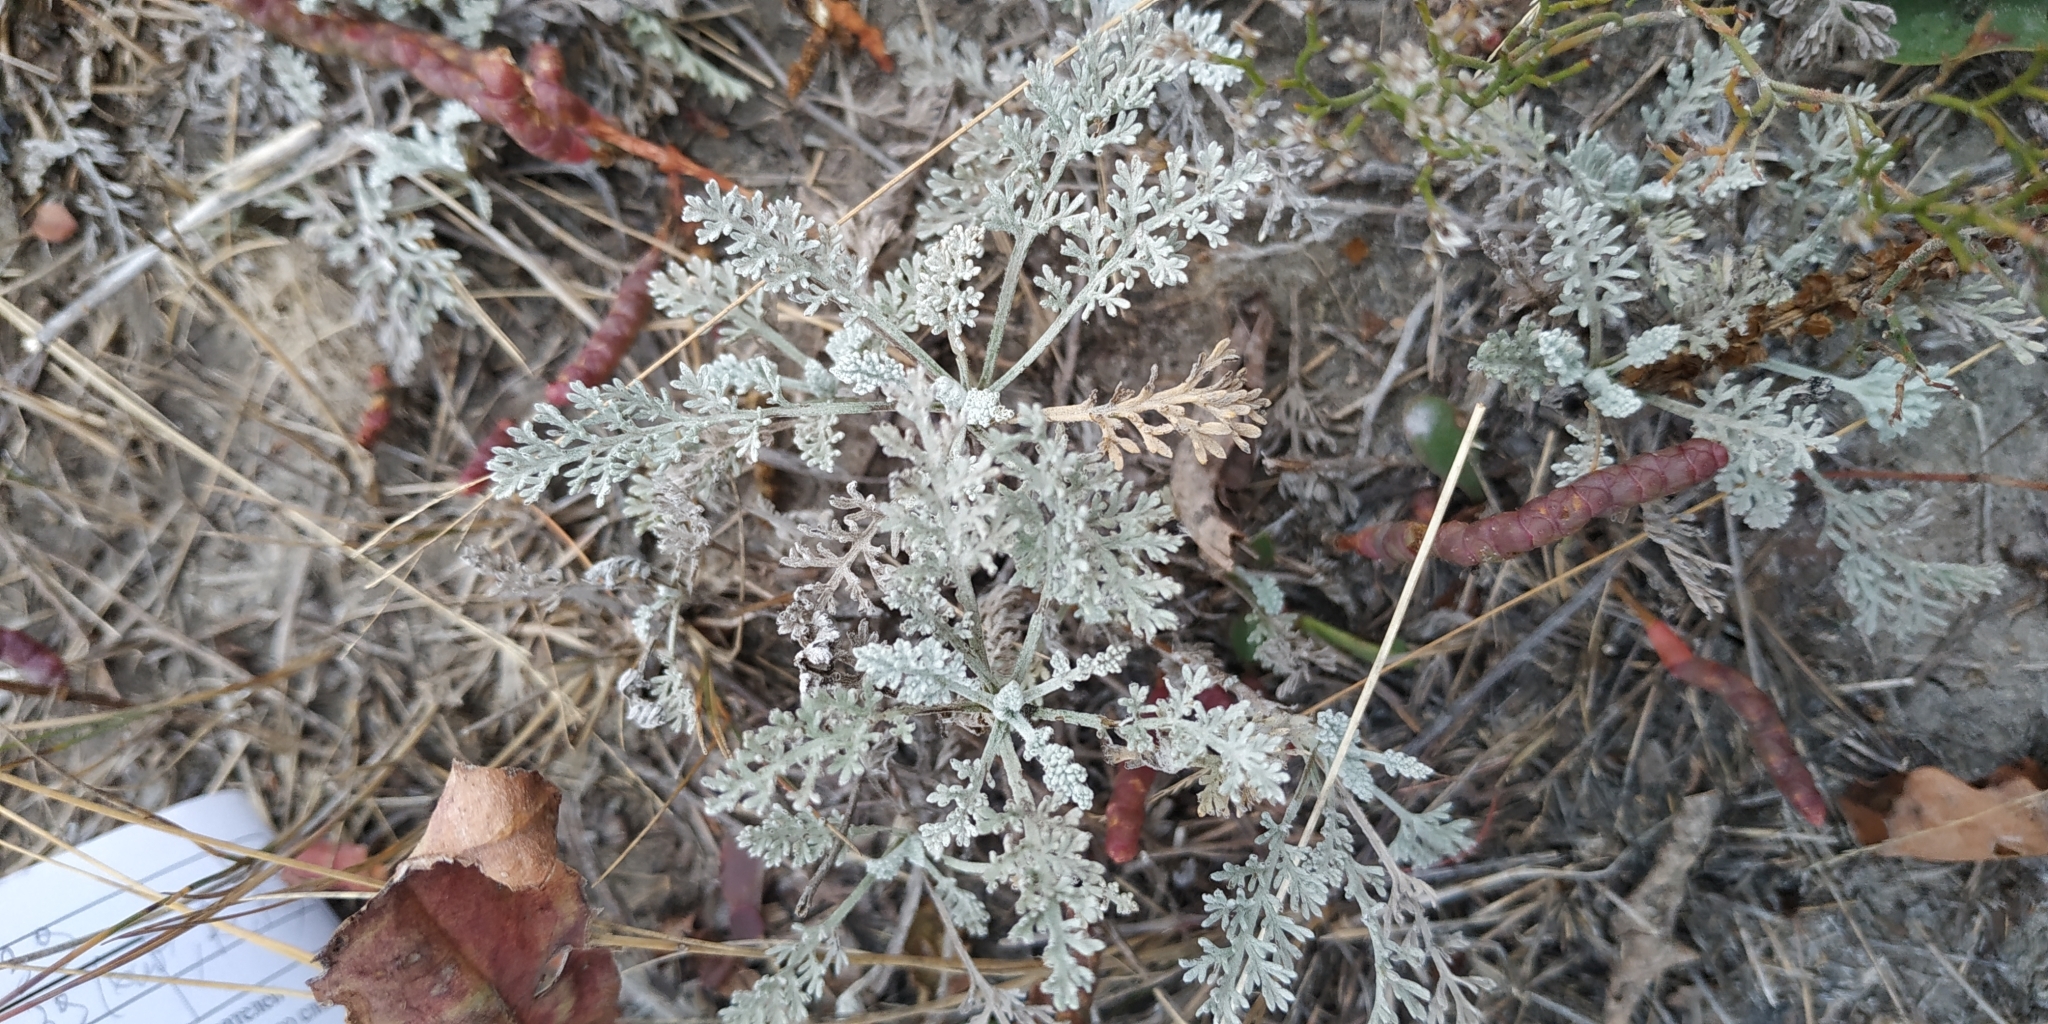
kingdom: Plantae
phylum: Tracheophyta
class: Magnoliopsida
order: Asterales
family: Asteraceae
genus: Artemisia
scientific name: Artemisia nitrosa
